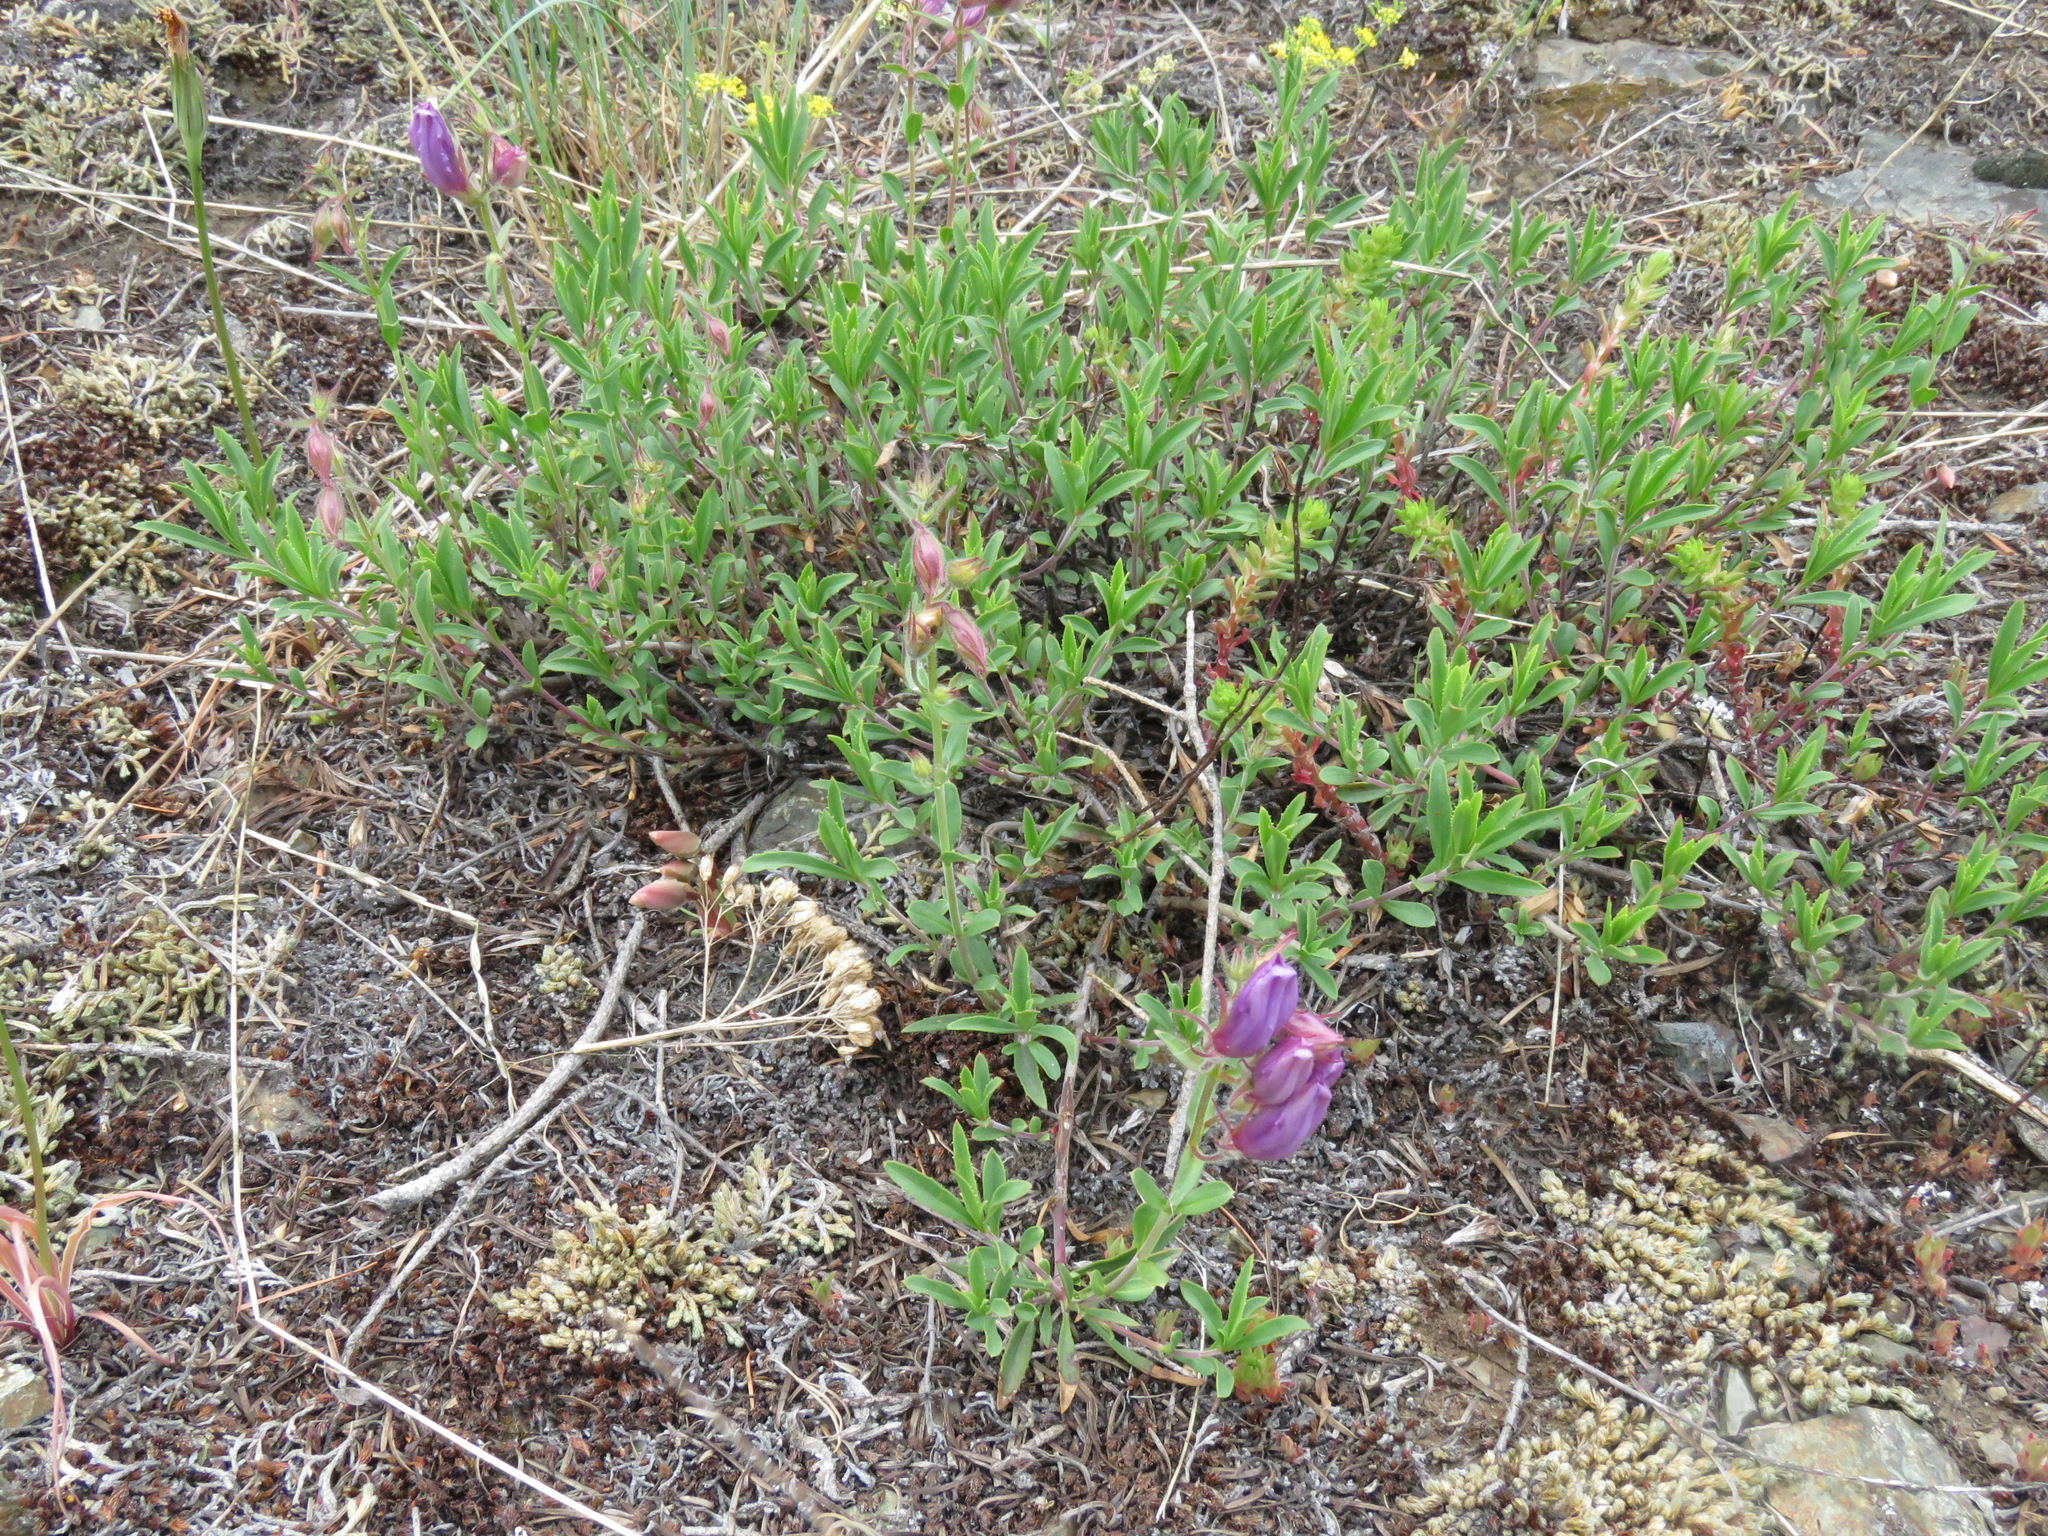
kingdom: Plantae
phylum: Tracheophyta
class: Magnoliopsida
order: Lamiales
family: Plantaginaceae
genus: Penstemon
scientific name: Penstemon fruticosus
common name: Bush penstemon
